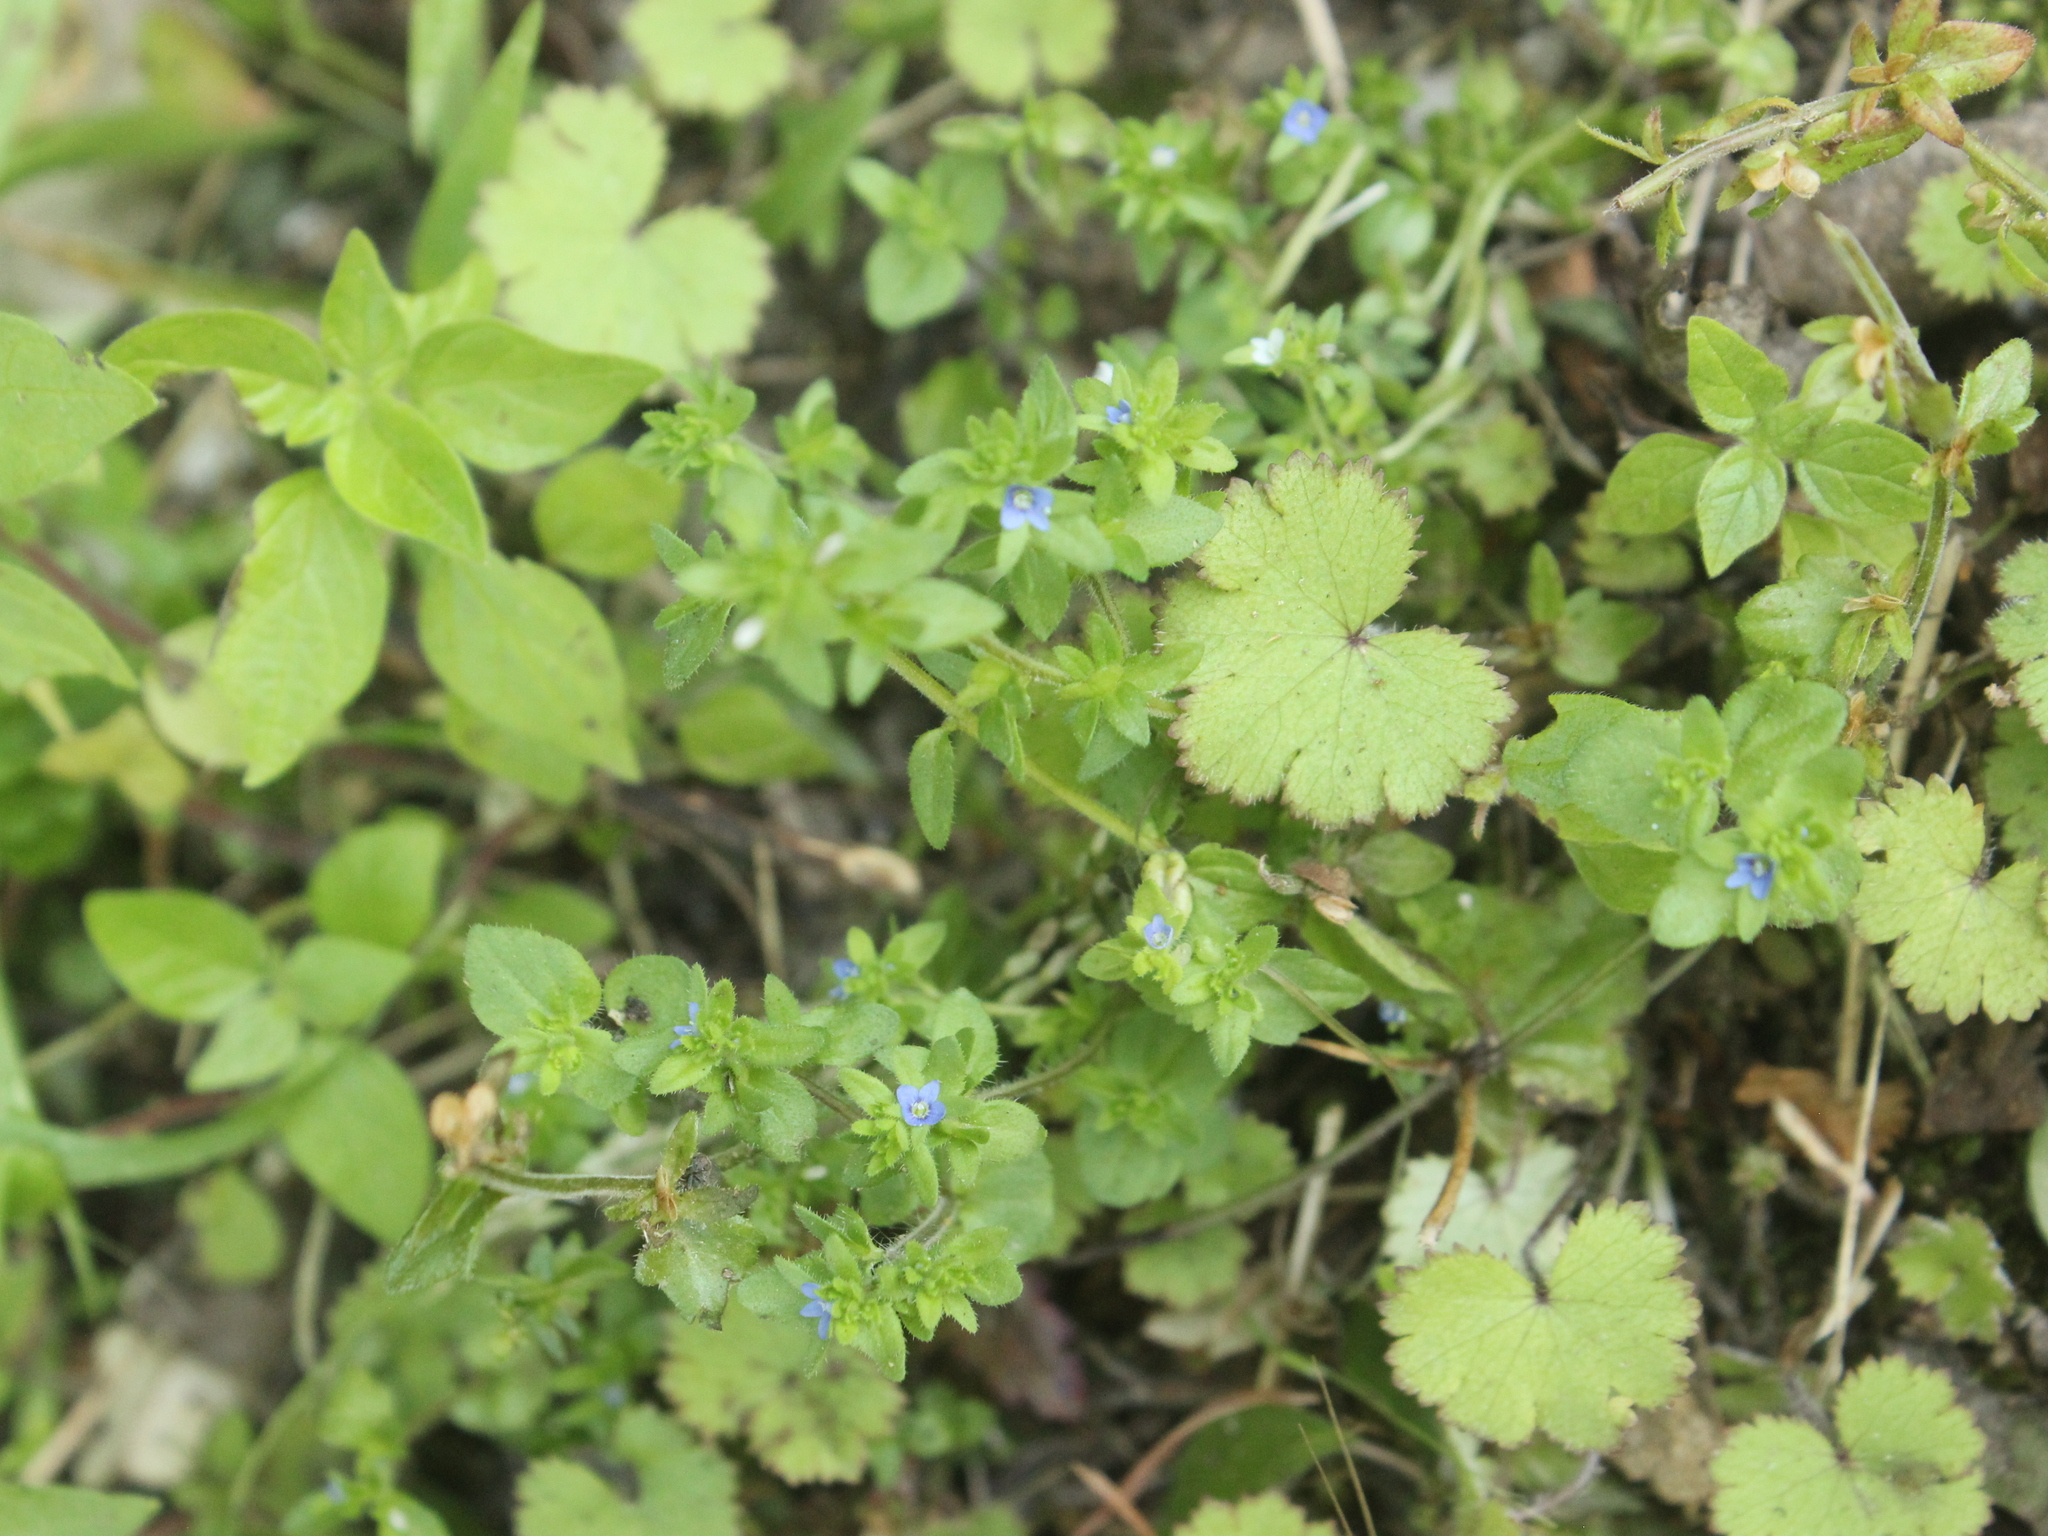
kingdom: Plantae
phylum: Tracheophyta
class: Magnoliopsida
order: Lamiales
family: Plantaginaceae
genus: Veronica
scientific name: Veronica arvensis
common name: Corn speedwell
